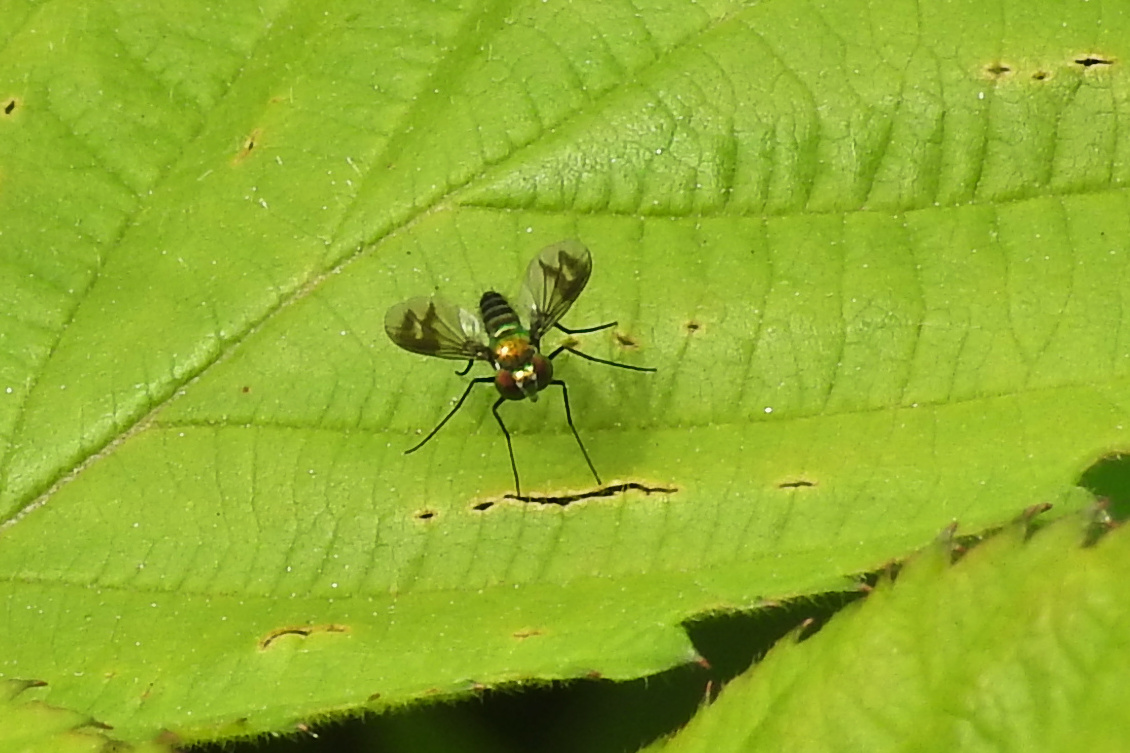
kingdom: Animalia
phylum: Arthropoda
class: Insecta
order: Diptera
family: Dolichopodidae
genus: Condylostylus
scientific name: Condylostylus patibulatus
